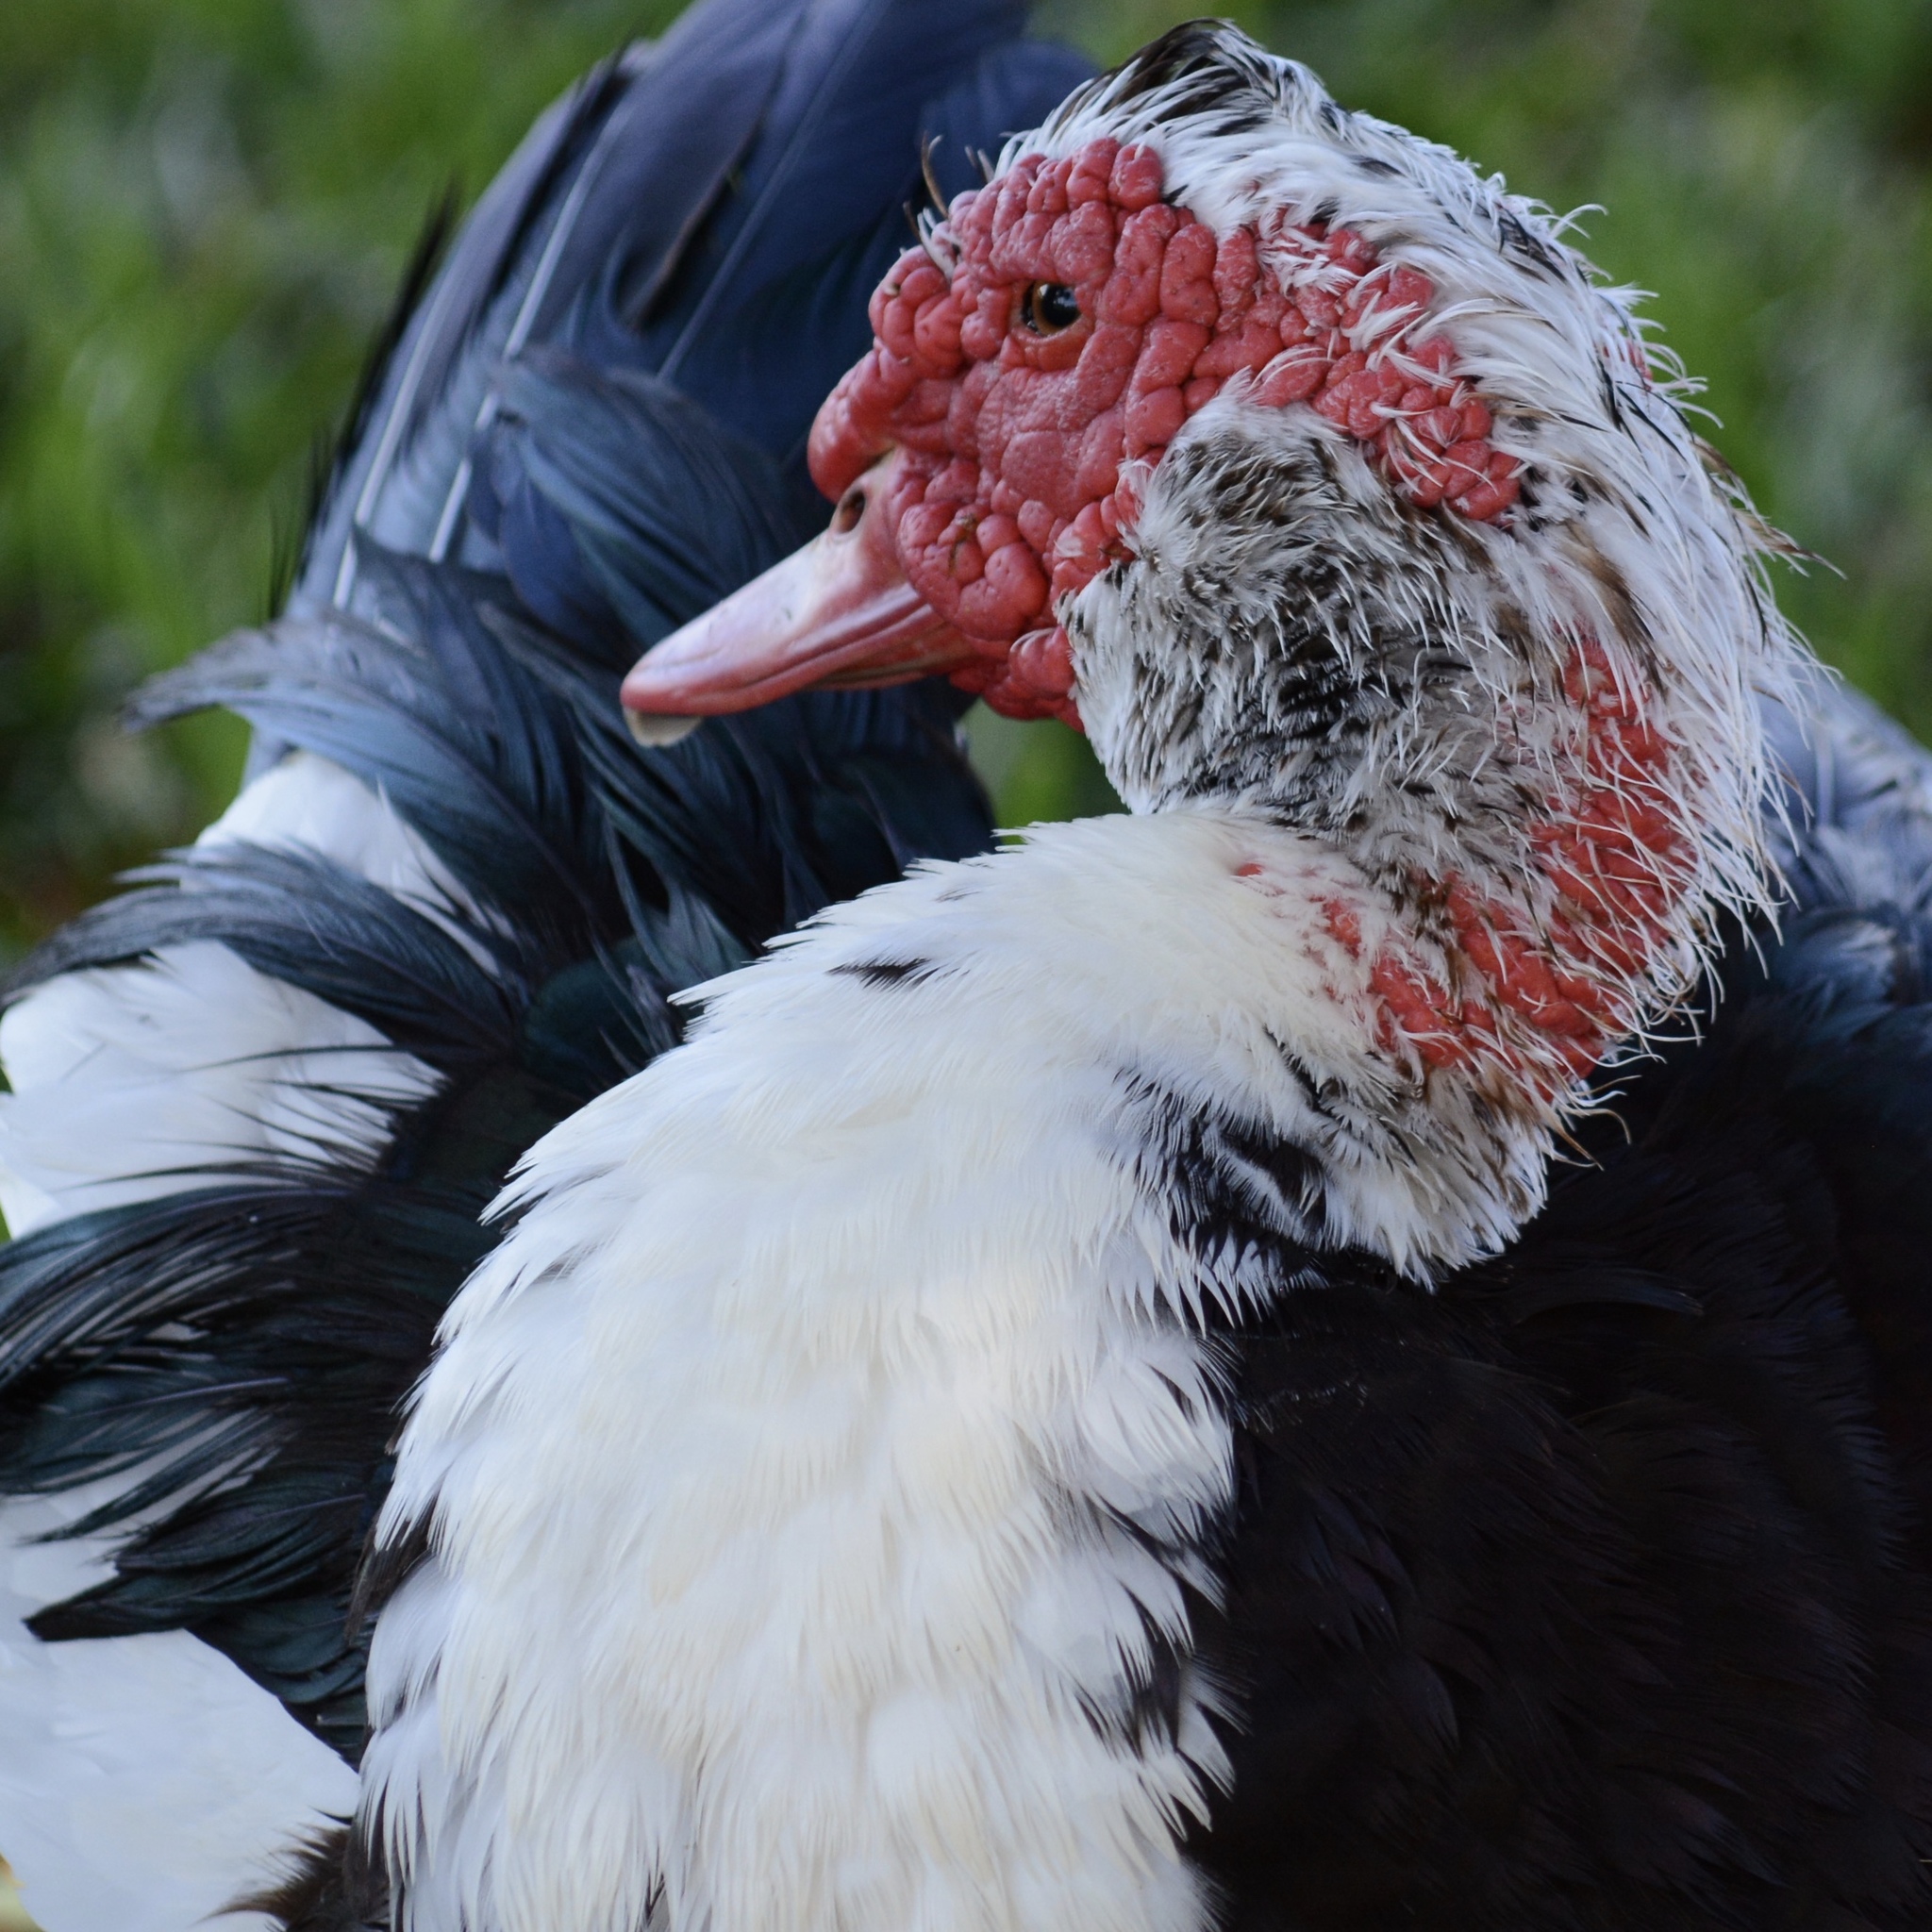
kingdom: Animalia
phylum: Chordata
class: Aves
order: Anseriformes
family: Anatidae
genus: Cairina
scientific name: Cairina moschata
